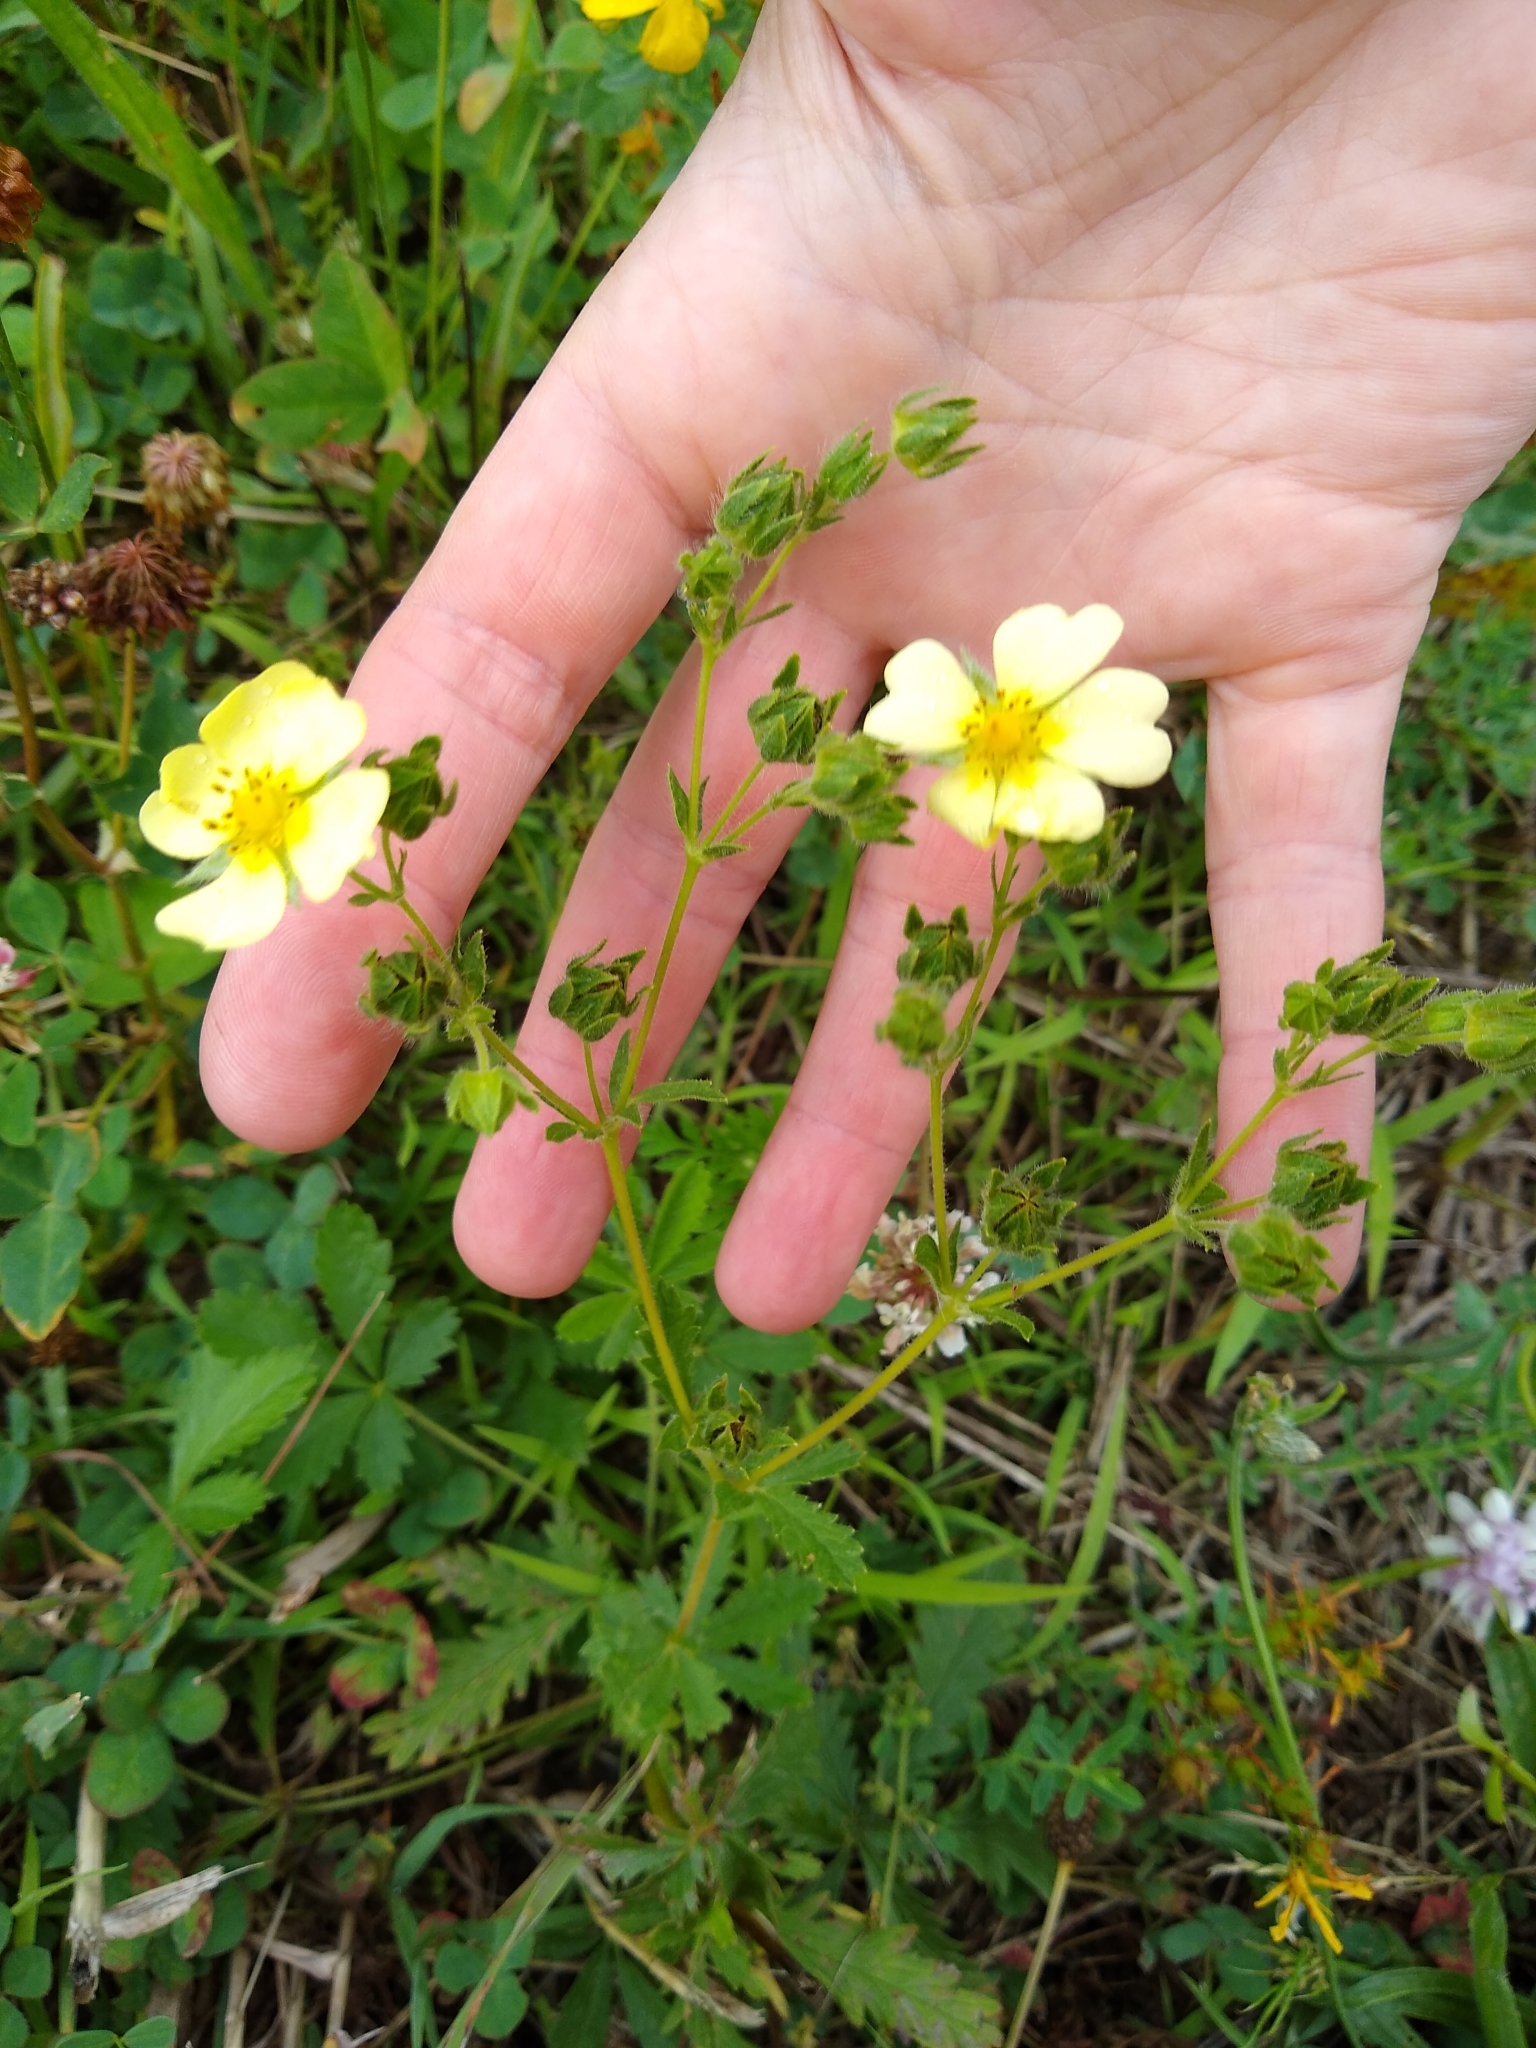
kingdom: Plantae
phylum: Tracheophyta
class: Magnoliopsida
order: Rosales
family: Rosaceae
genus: Potentilla
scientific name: Potentilla recta
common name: Sulphur cinquefoil
